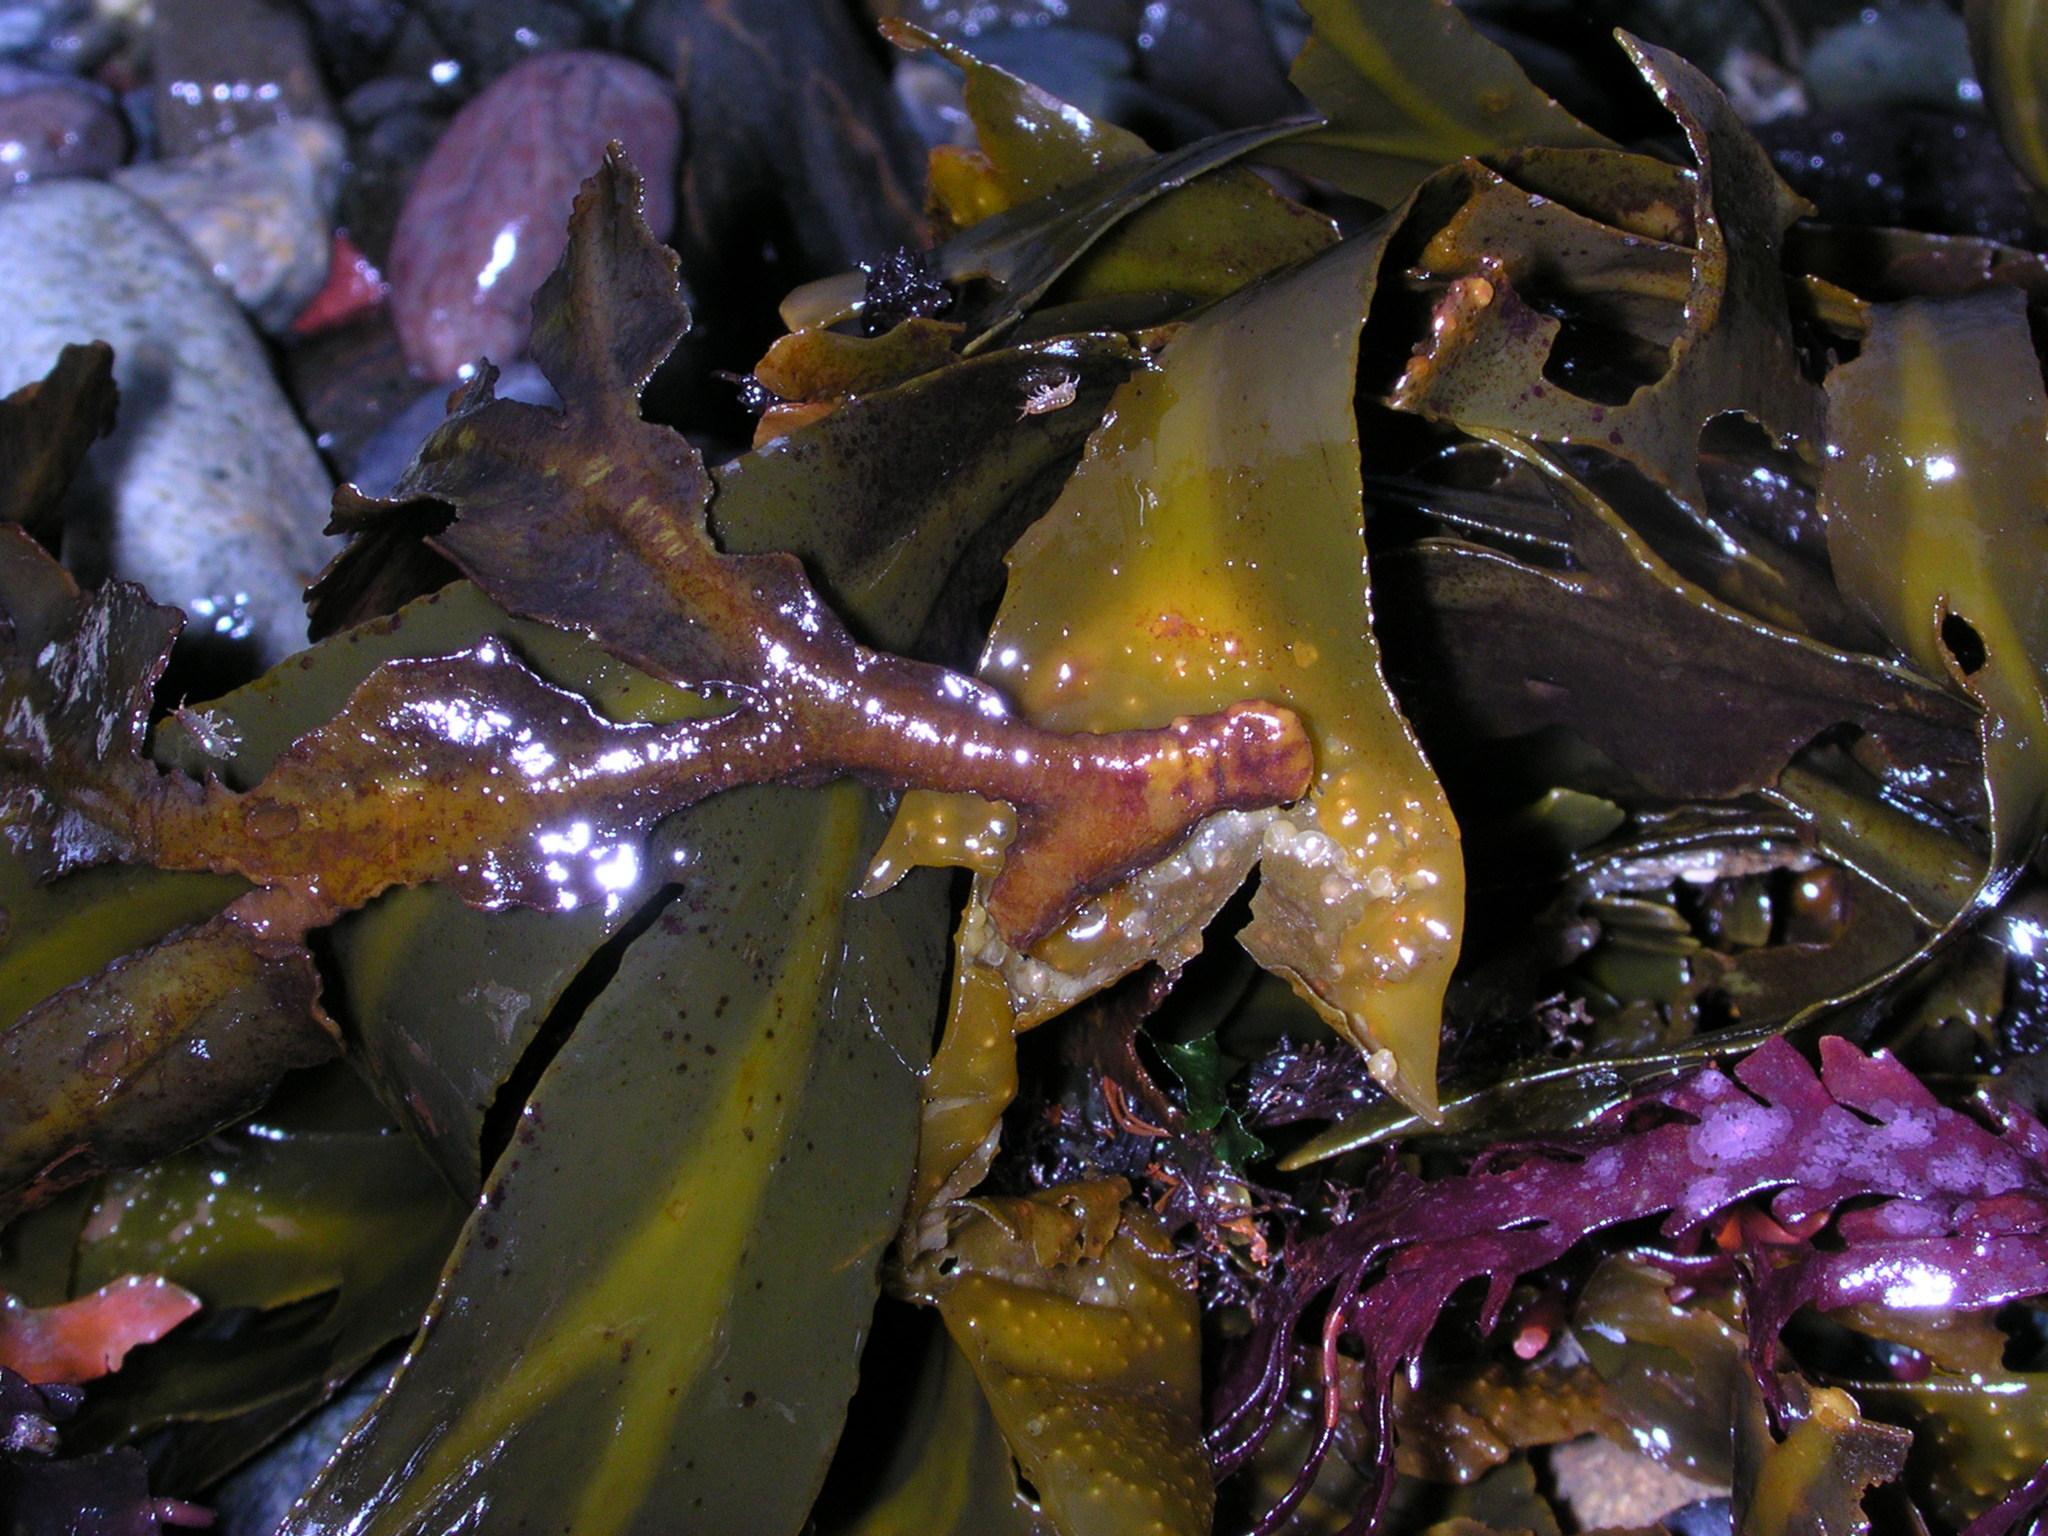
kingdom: Chromista
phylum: Ochrophyta
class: Phaeophyceae
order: Fucales
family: Fucaceae
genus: Fucus
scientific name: Fucus distichus
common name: Rockweed
